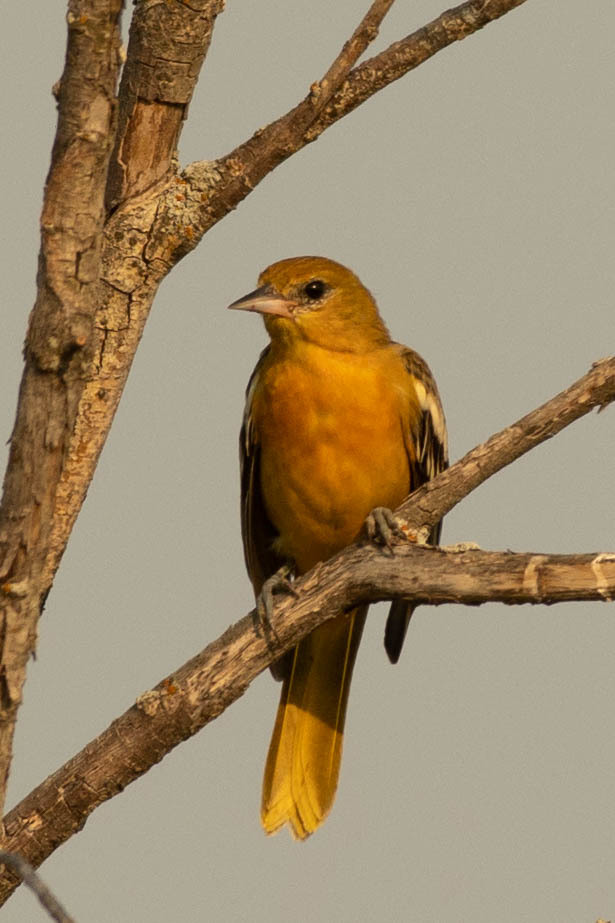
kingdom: Animalia
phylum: Chordata
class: Aves
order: Passeriformes
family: Icteridae
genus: Icterus
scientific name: Icterus galbula
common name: Baltimore oriole
